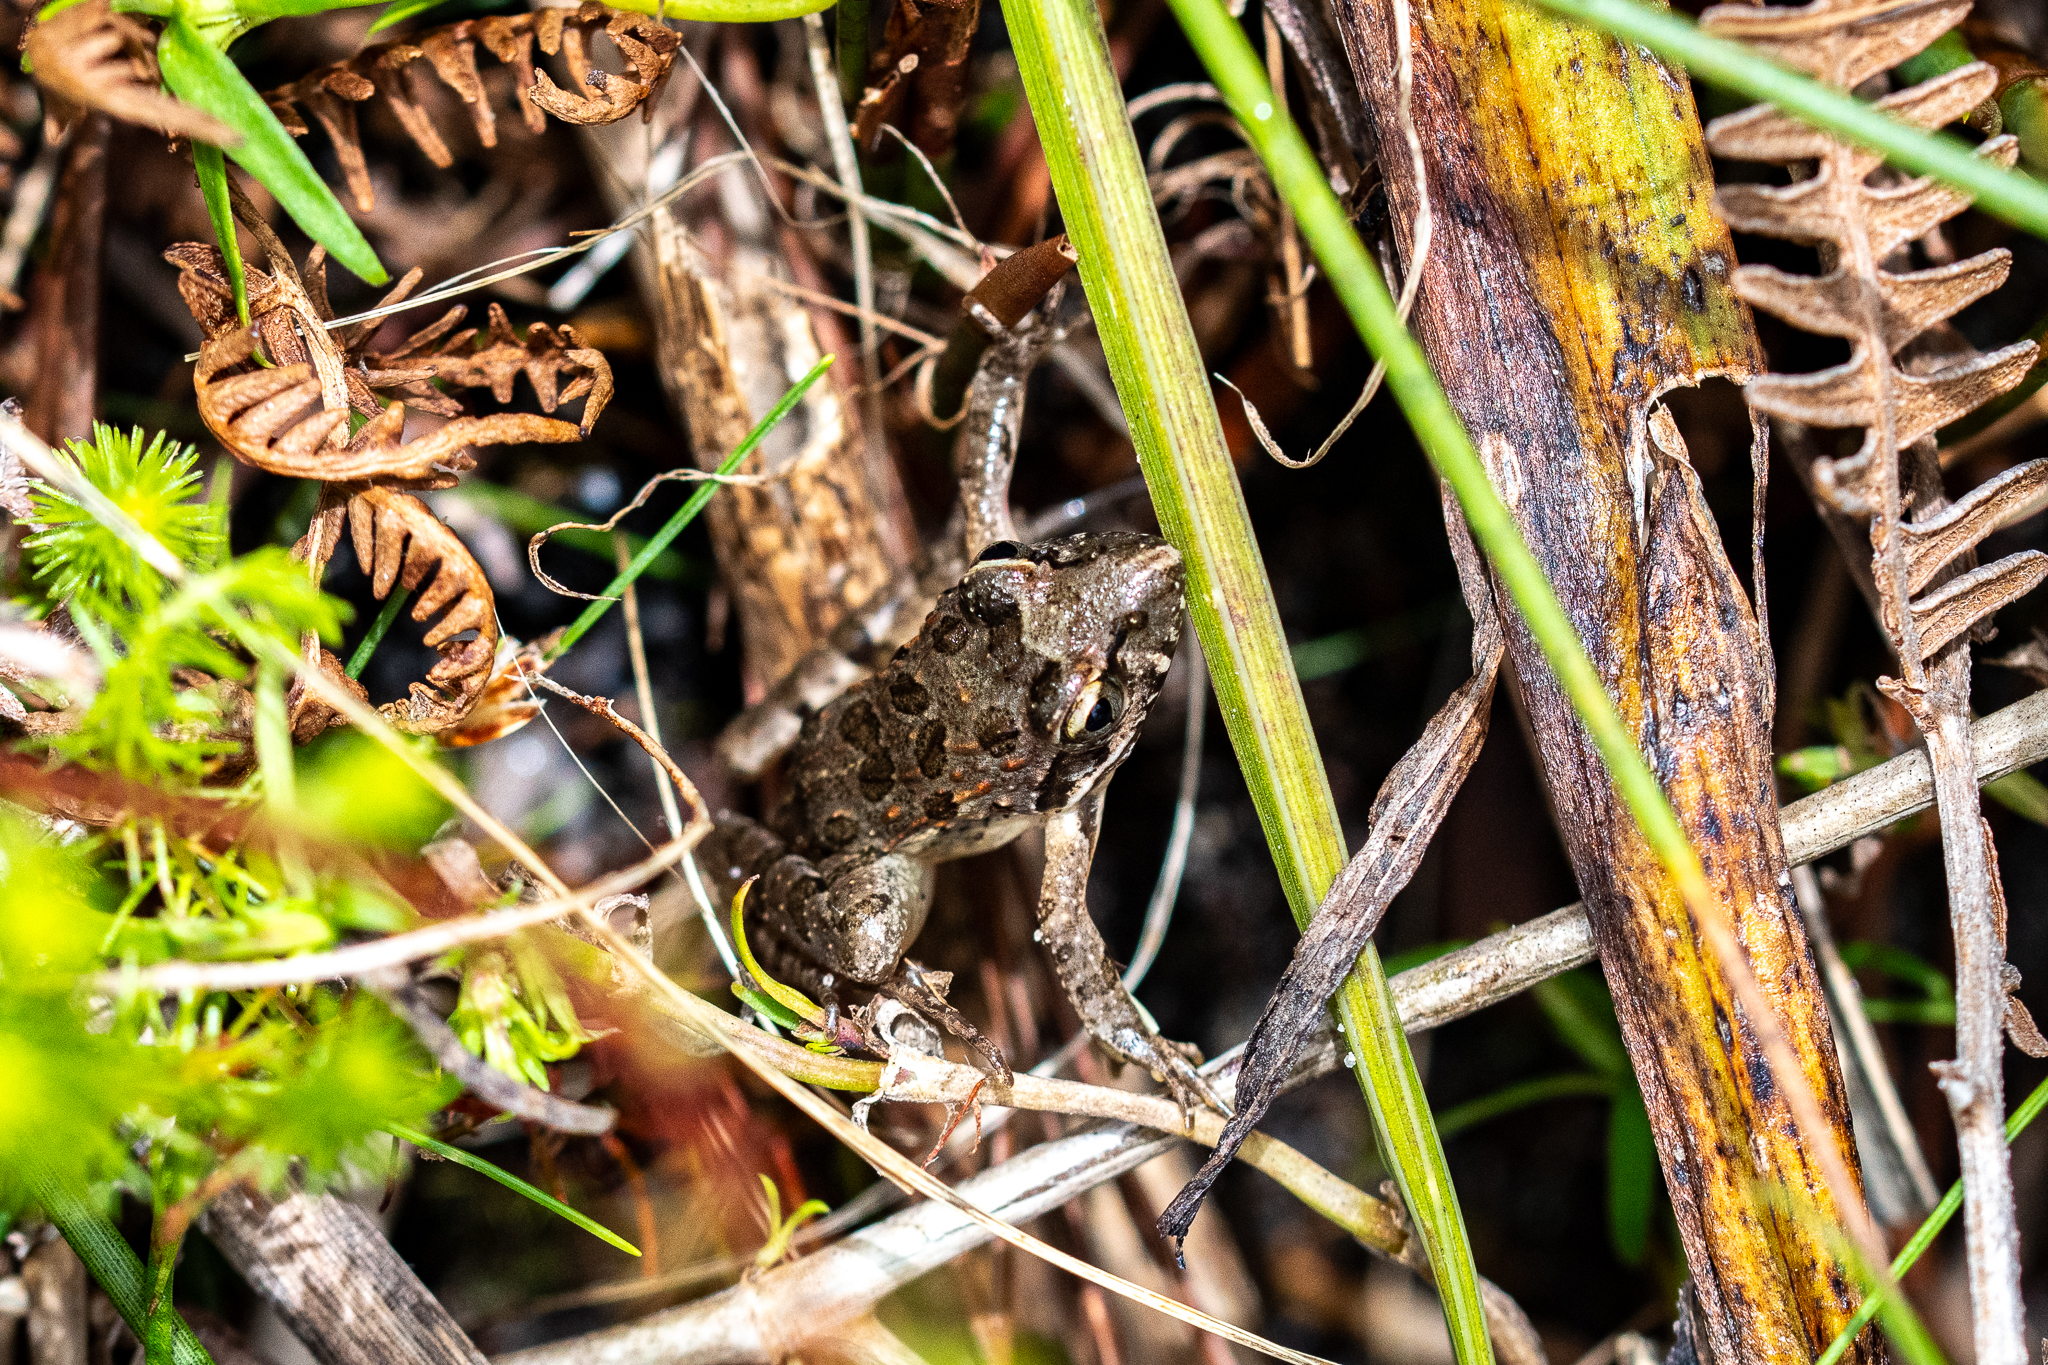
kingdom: Animalia
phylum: Chordata
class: Amphibia
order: Anura
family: Pyxicephalidae
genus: Strongylopus
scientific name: Strongylopus grayii
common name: Gray's stream frog
